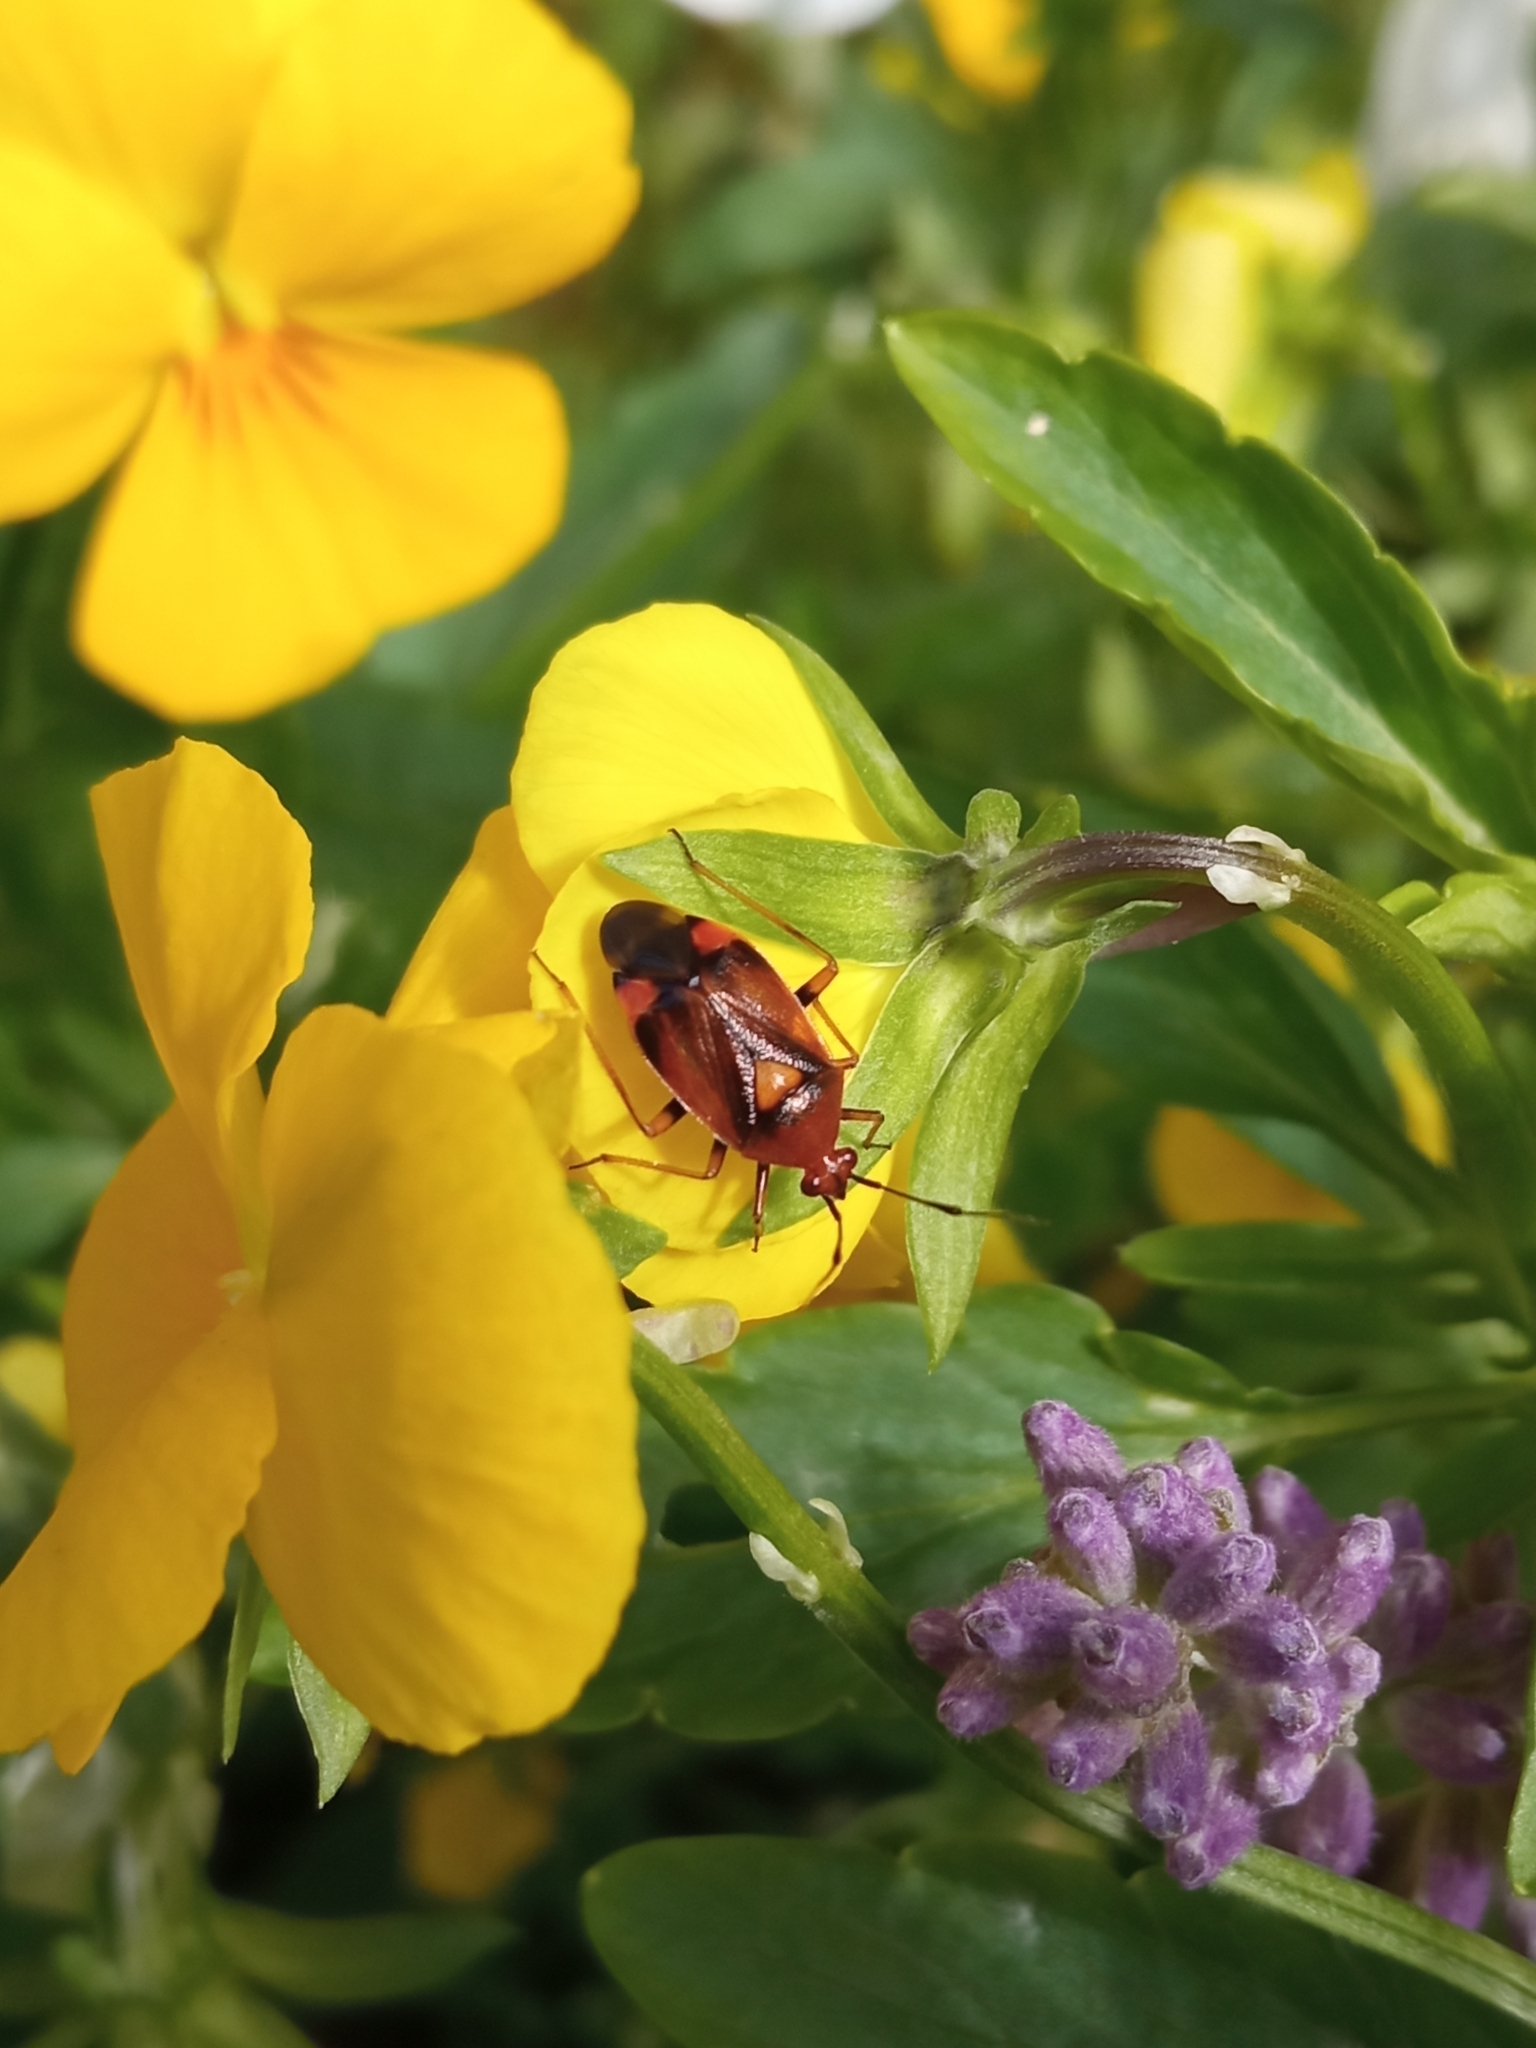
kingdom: Animalia
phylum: Arthropoda
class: Insecta
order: Hemiptera
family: Miridae
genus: Deraeocoris
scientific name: Deraeocoris ruber
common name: Plant bug
